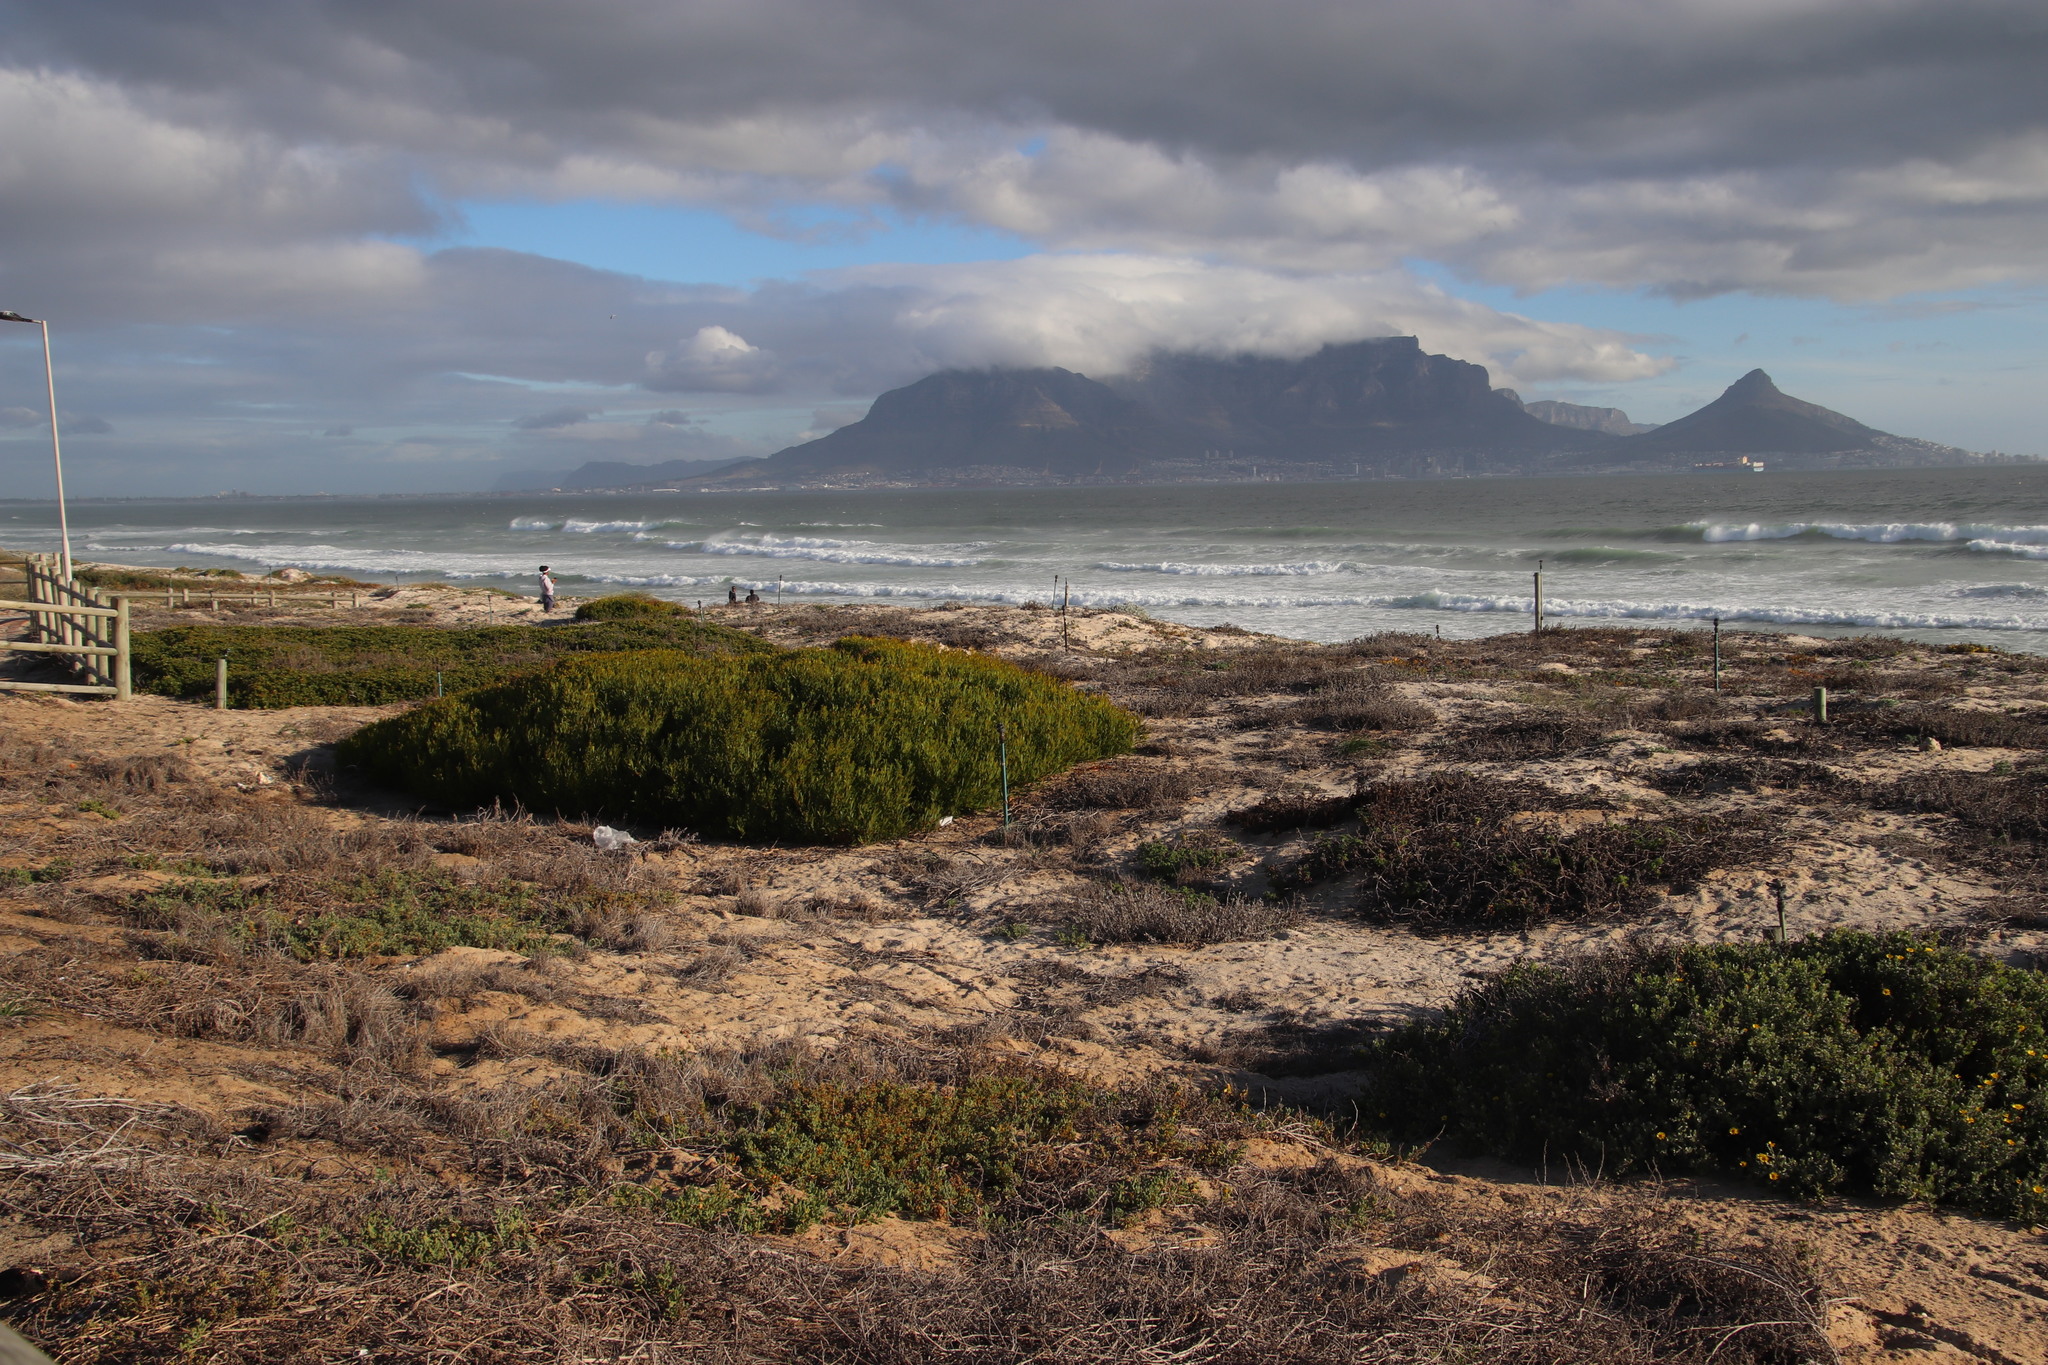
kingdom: Plantae
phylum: Tracheophyta
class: Magnoliopsida
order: Fabales
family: Fabaceae
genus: Acacia
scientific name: Acacia cyclops
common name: Coastal wattle
